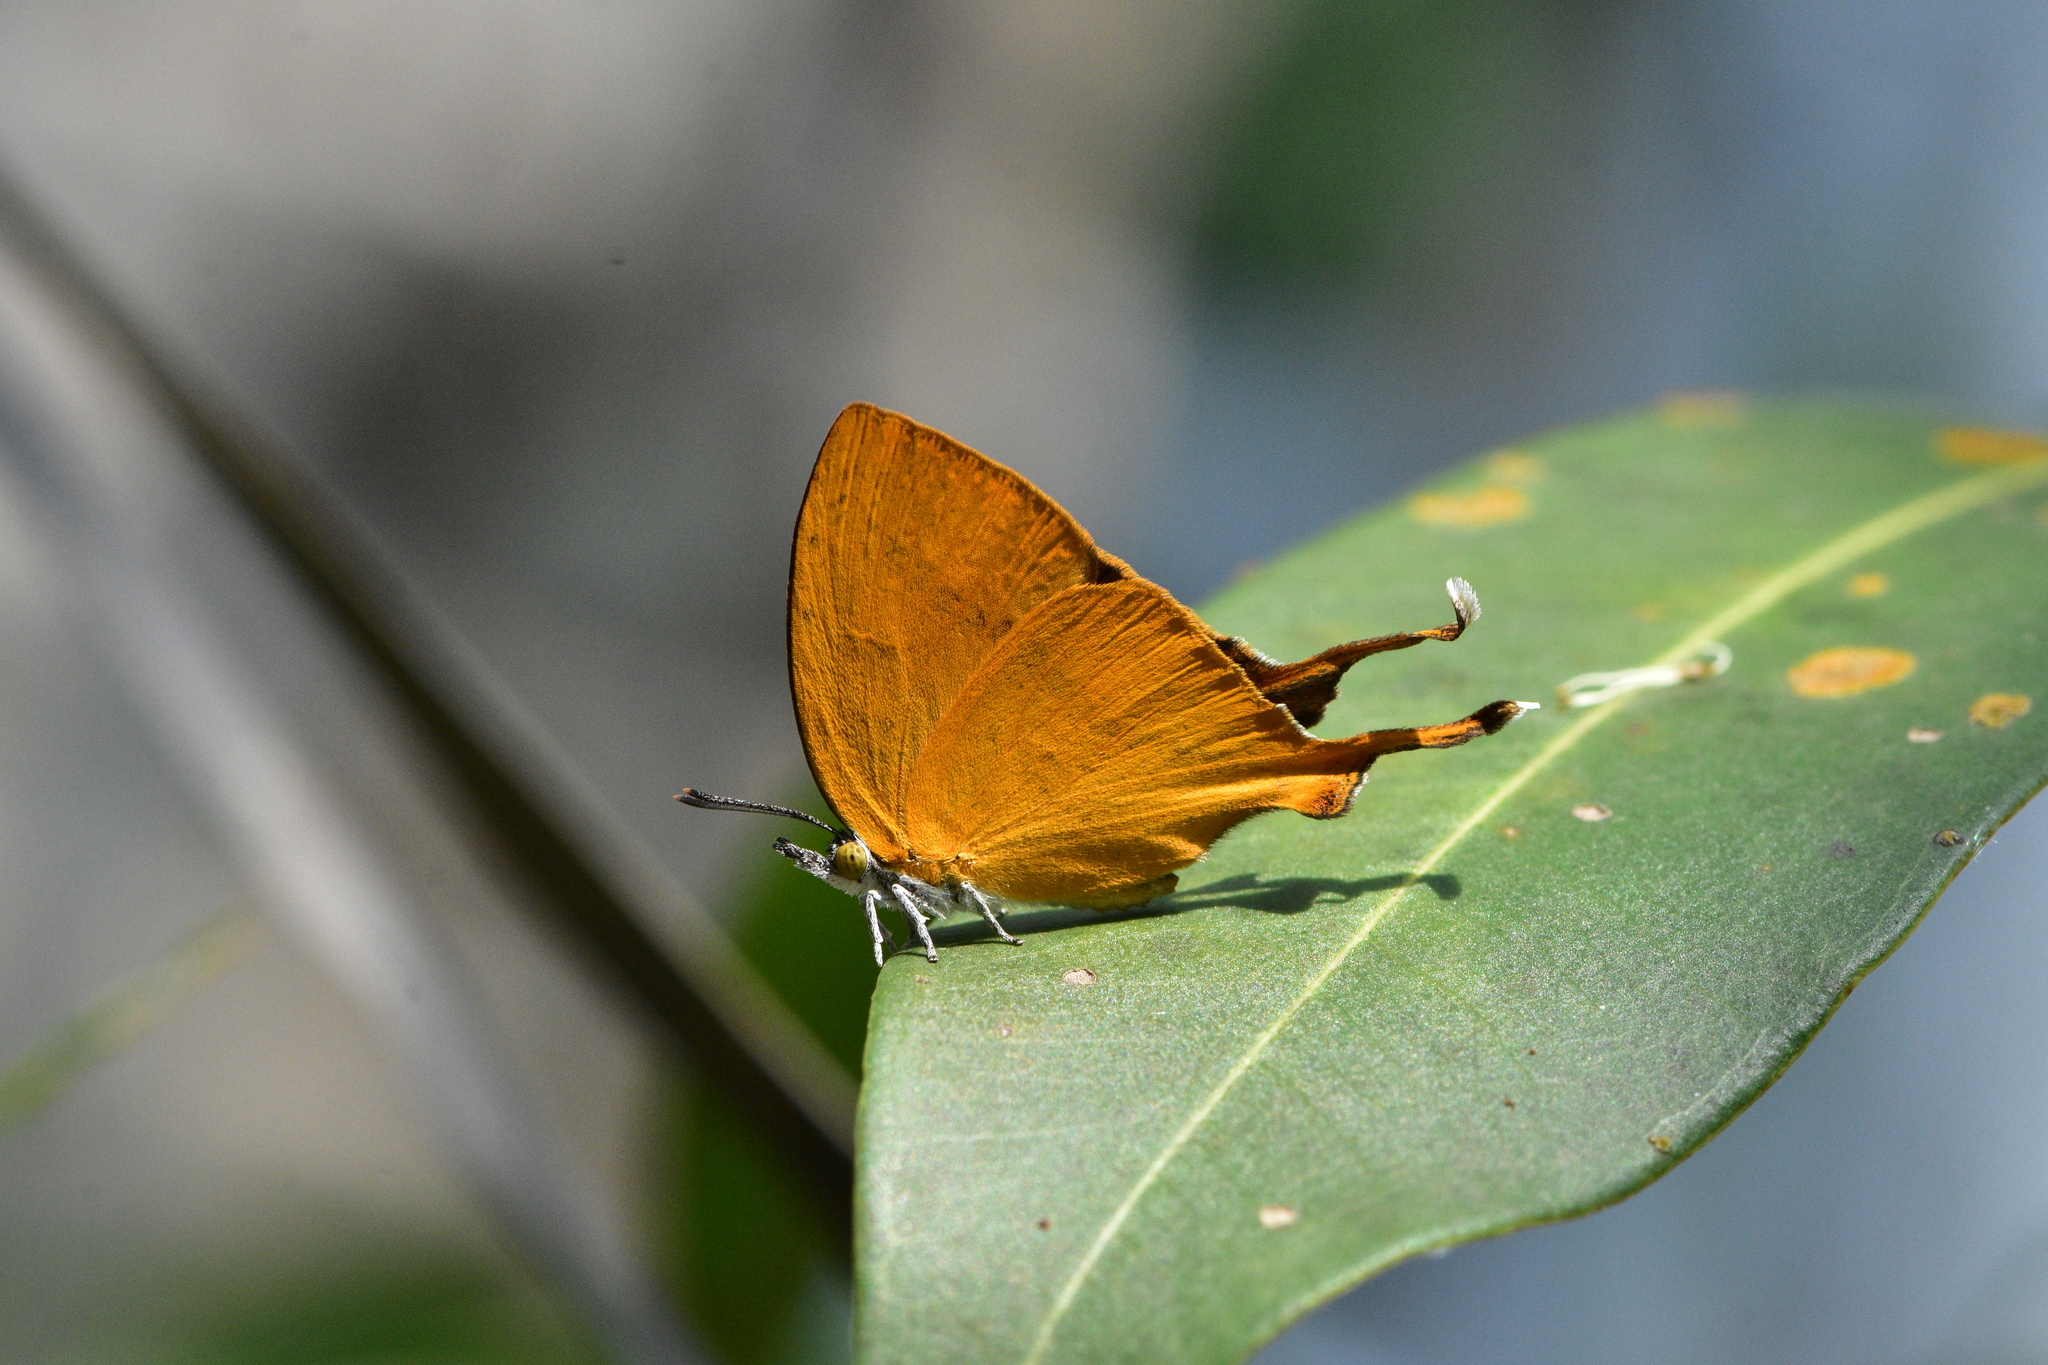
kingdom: Animalia
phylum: Arthropoda
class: Insecta
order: Lepidoptera
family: Lycaenidae
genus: Loxura
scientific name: Loxura atymnus
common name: Common yamfly
